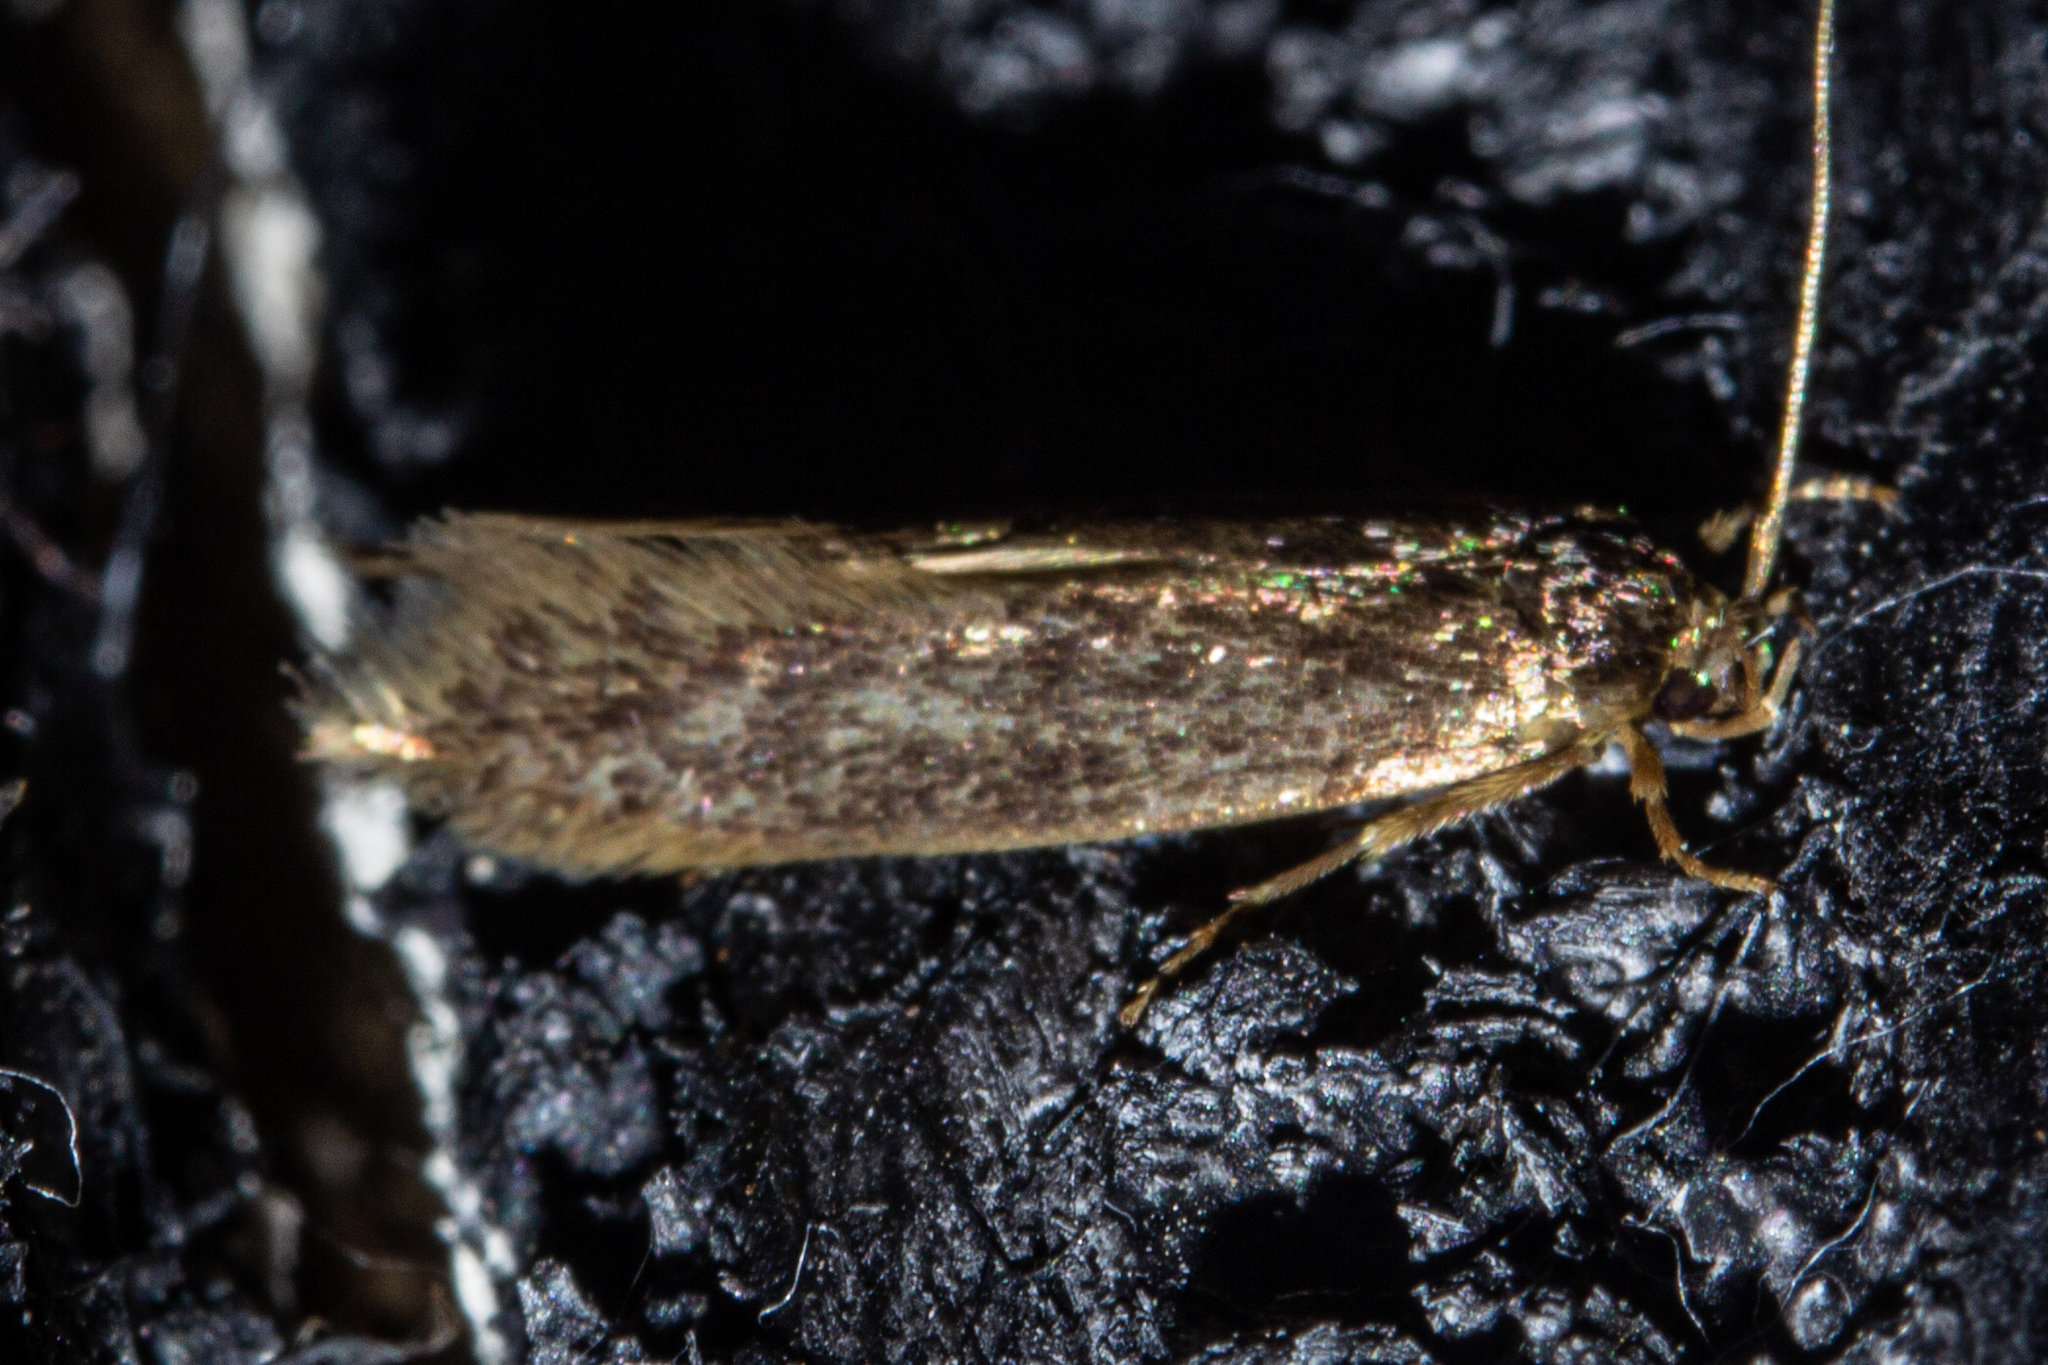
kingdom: Animalia
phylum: Arthropoda
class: Insecta
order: Lepidoptera
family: Tineidae
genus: Opogona
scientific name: Opogona omoscopa
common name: Moth
